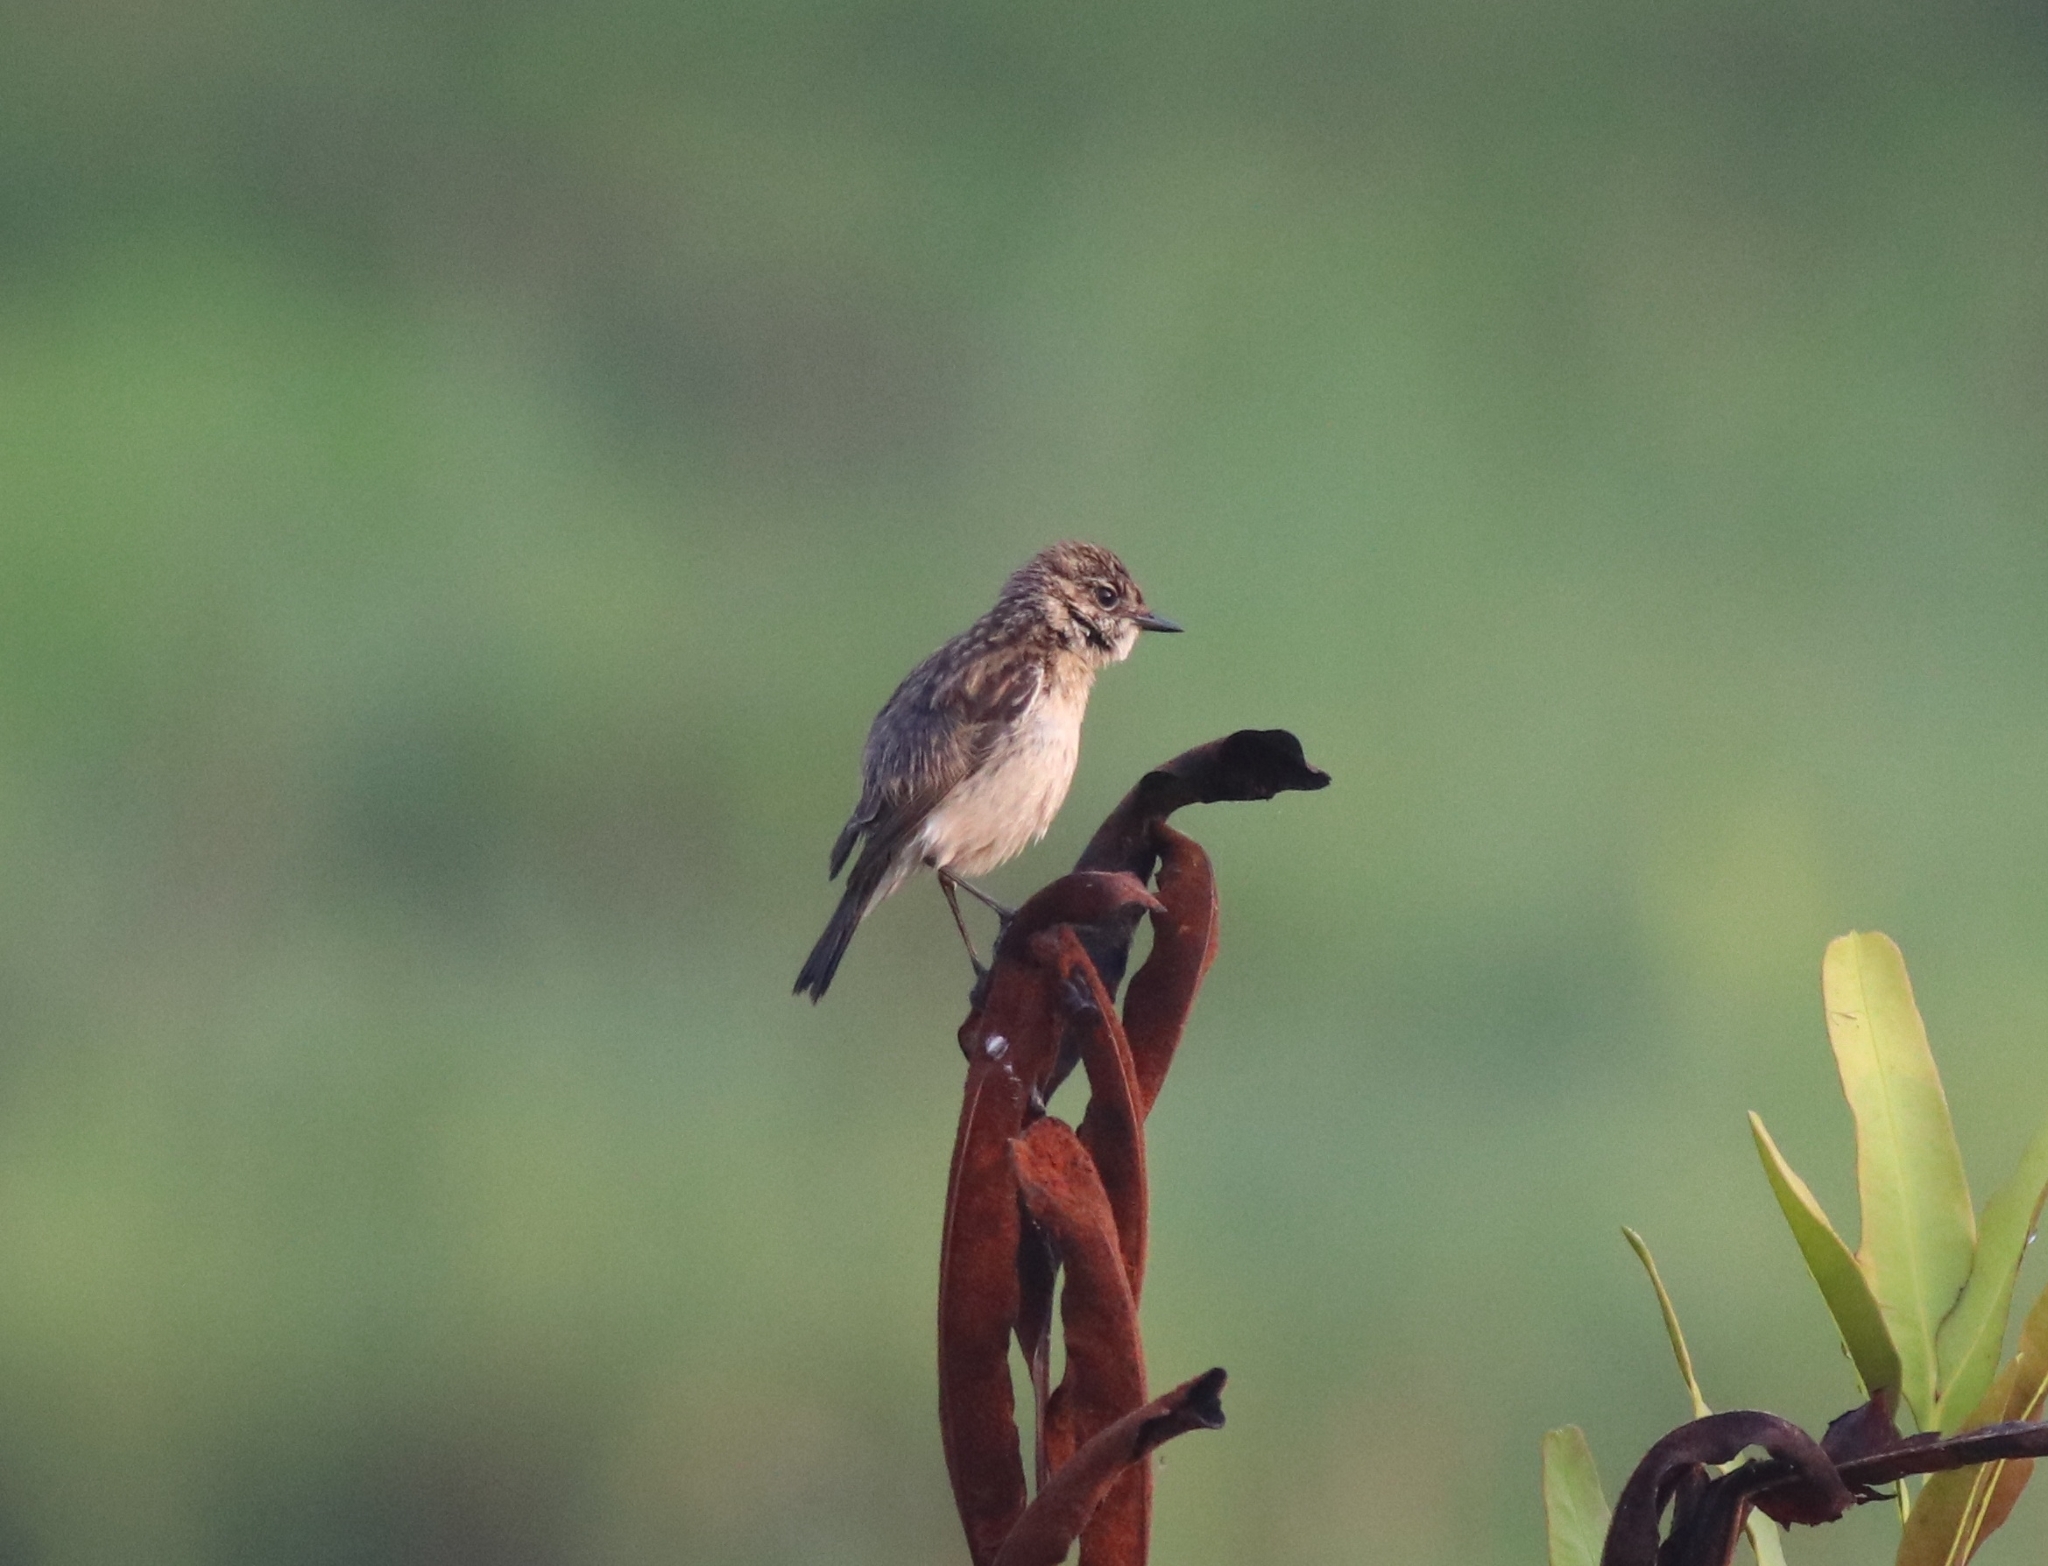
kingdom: Animalia
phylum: Chordata
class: Aves
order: Passeriformes
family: Muscicapidae
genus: Saxicola
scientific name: Saxicola maurus
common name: Siberian stonechat
